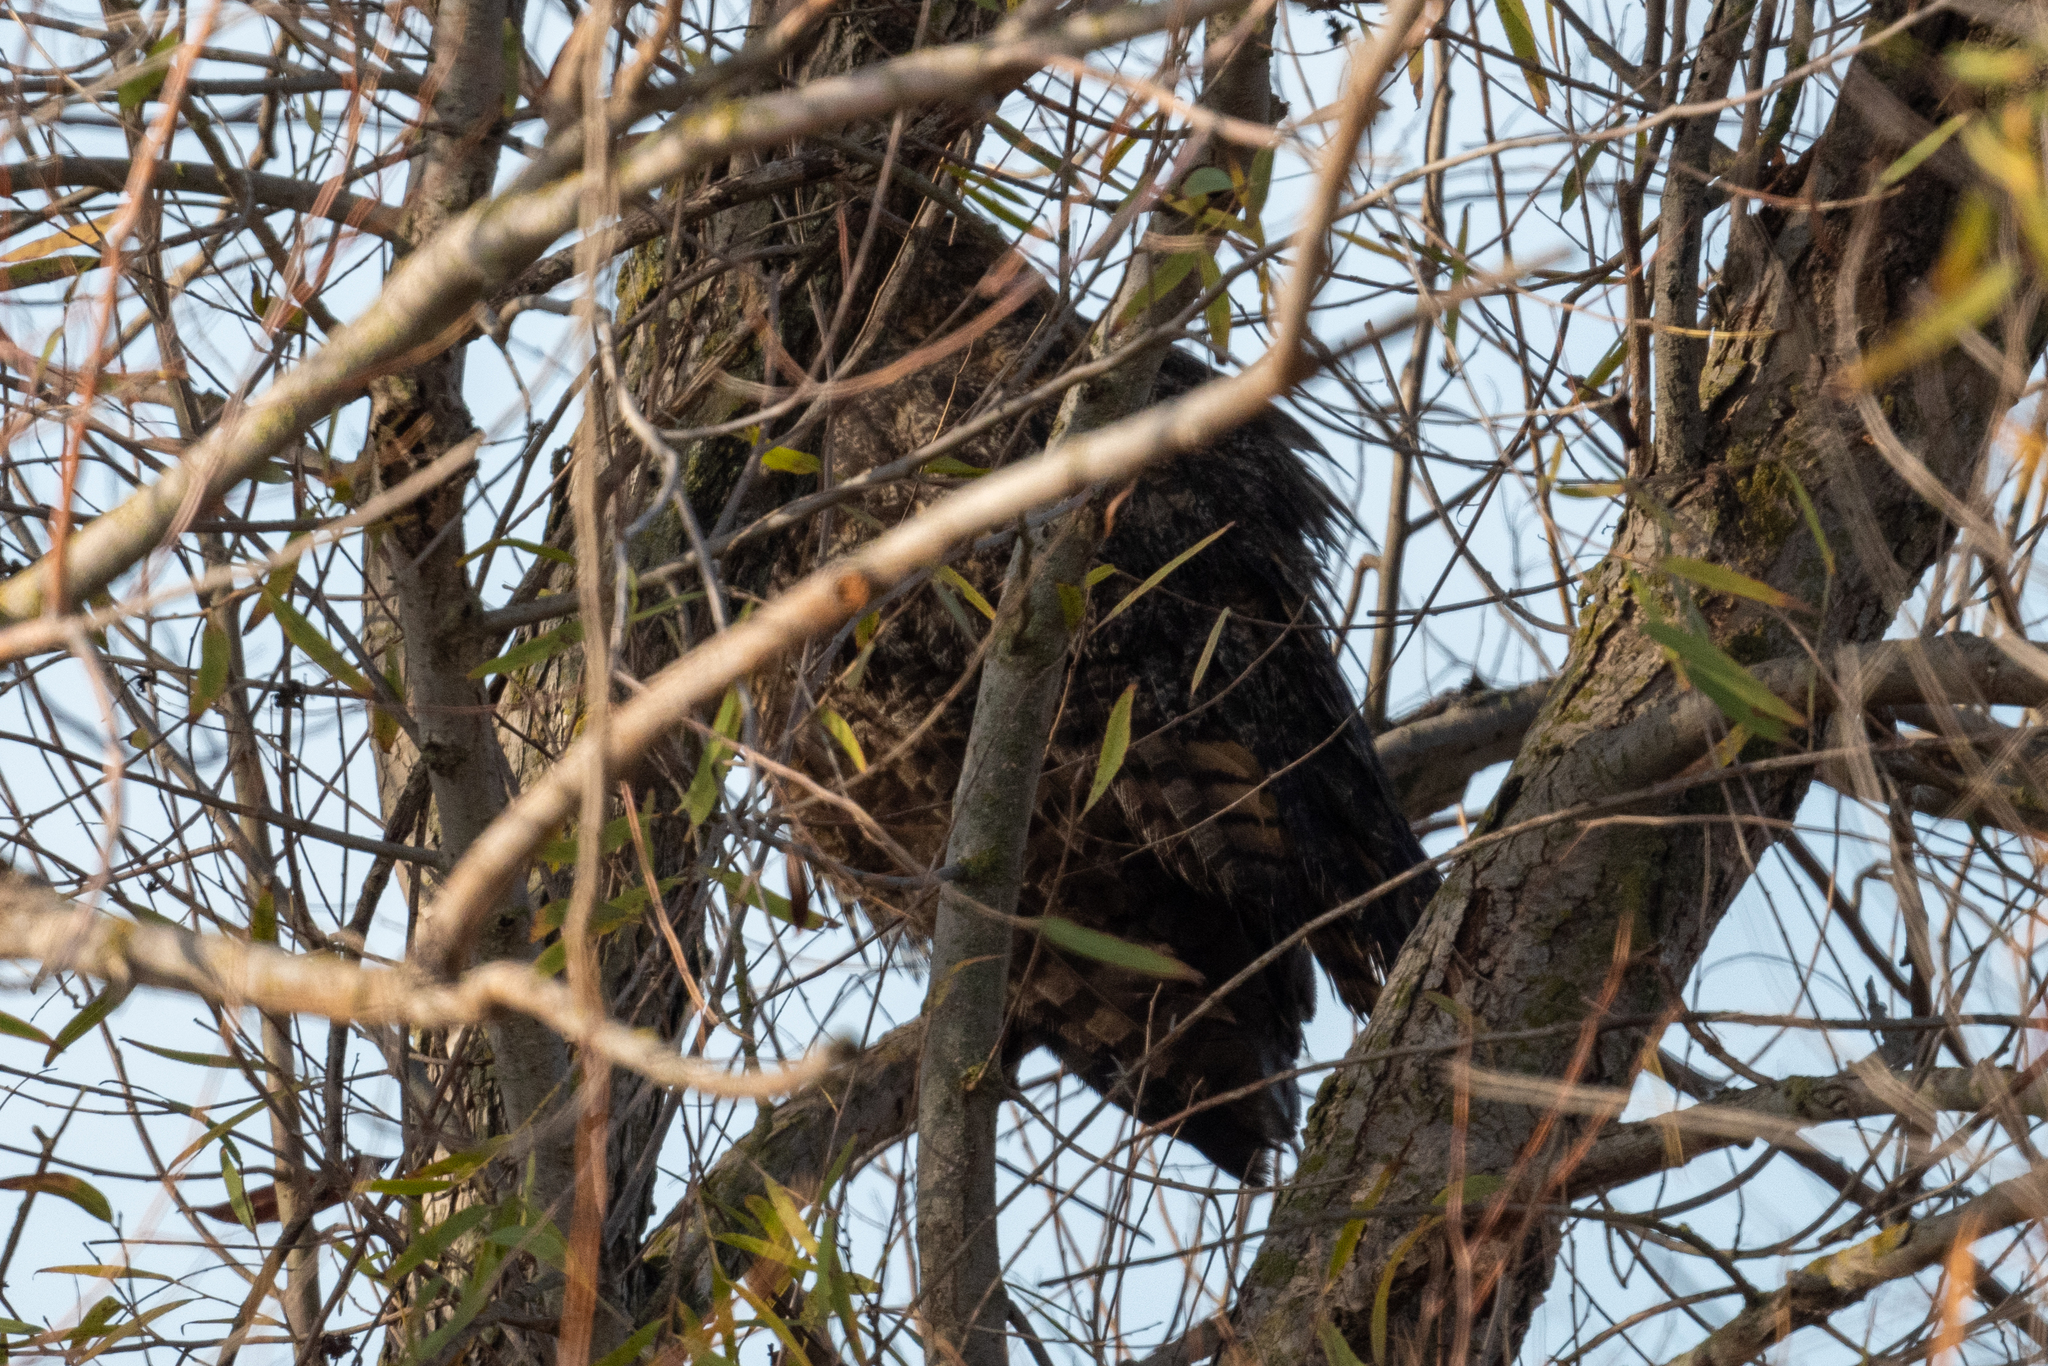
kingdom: Animalia
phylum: Chordata
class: Aves
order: Strigiformes
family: Strigidae
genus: Bubo
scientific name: Bubo virginianus
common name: Great horned owl
